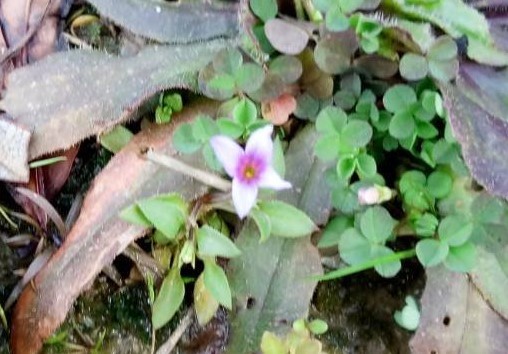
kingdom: Plantae
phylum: Tracheophyta
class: Magnoliopsida
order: Gentianales
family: Rubiaceae
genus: Houstonia
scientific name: Houstonia pusilla
